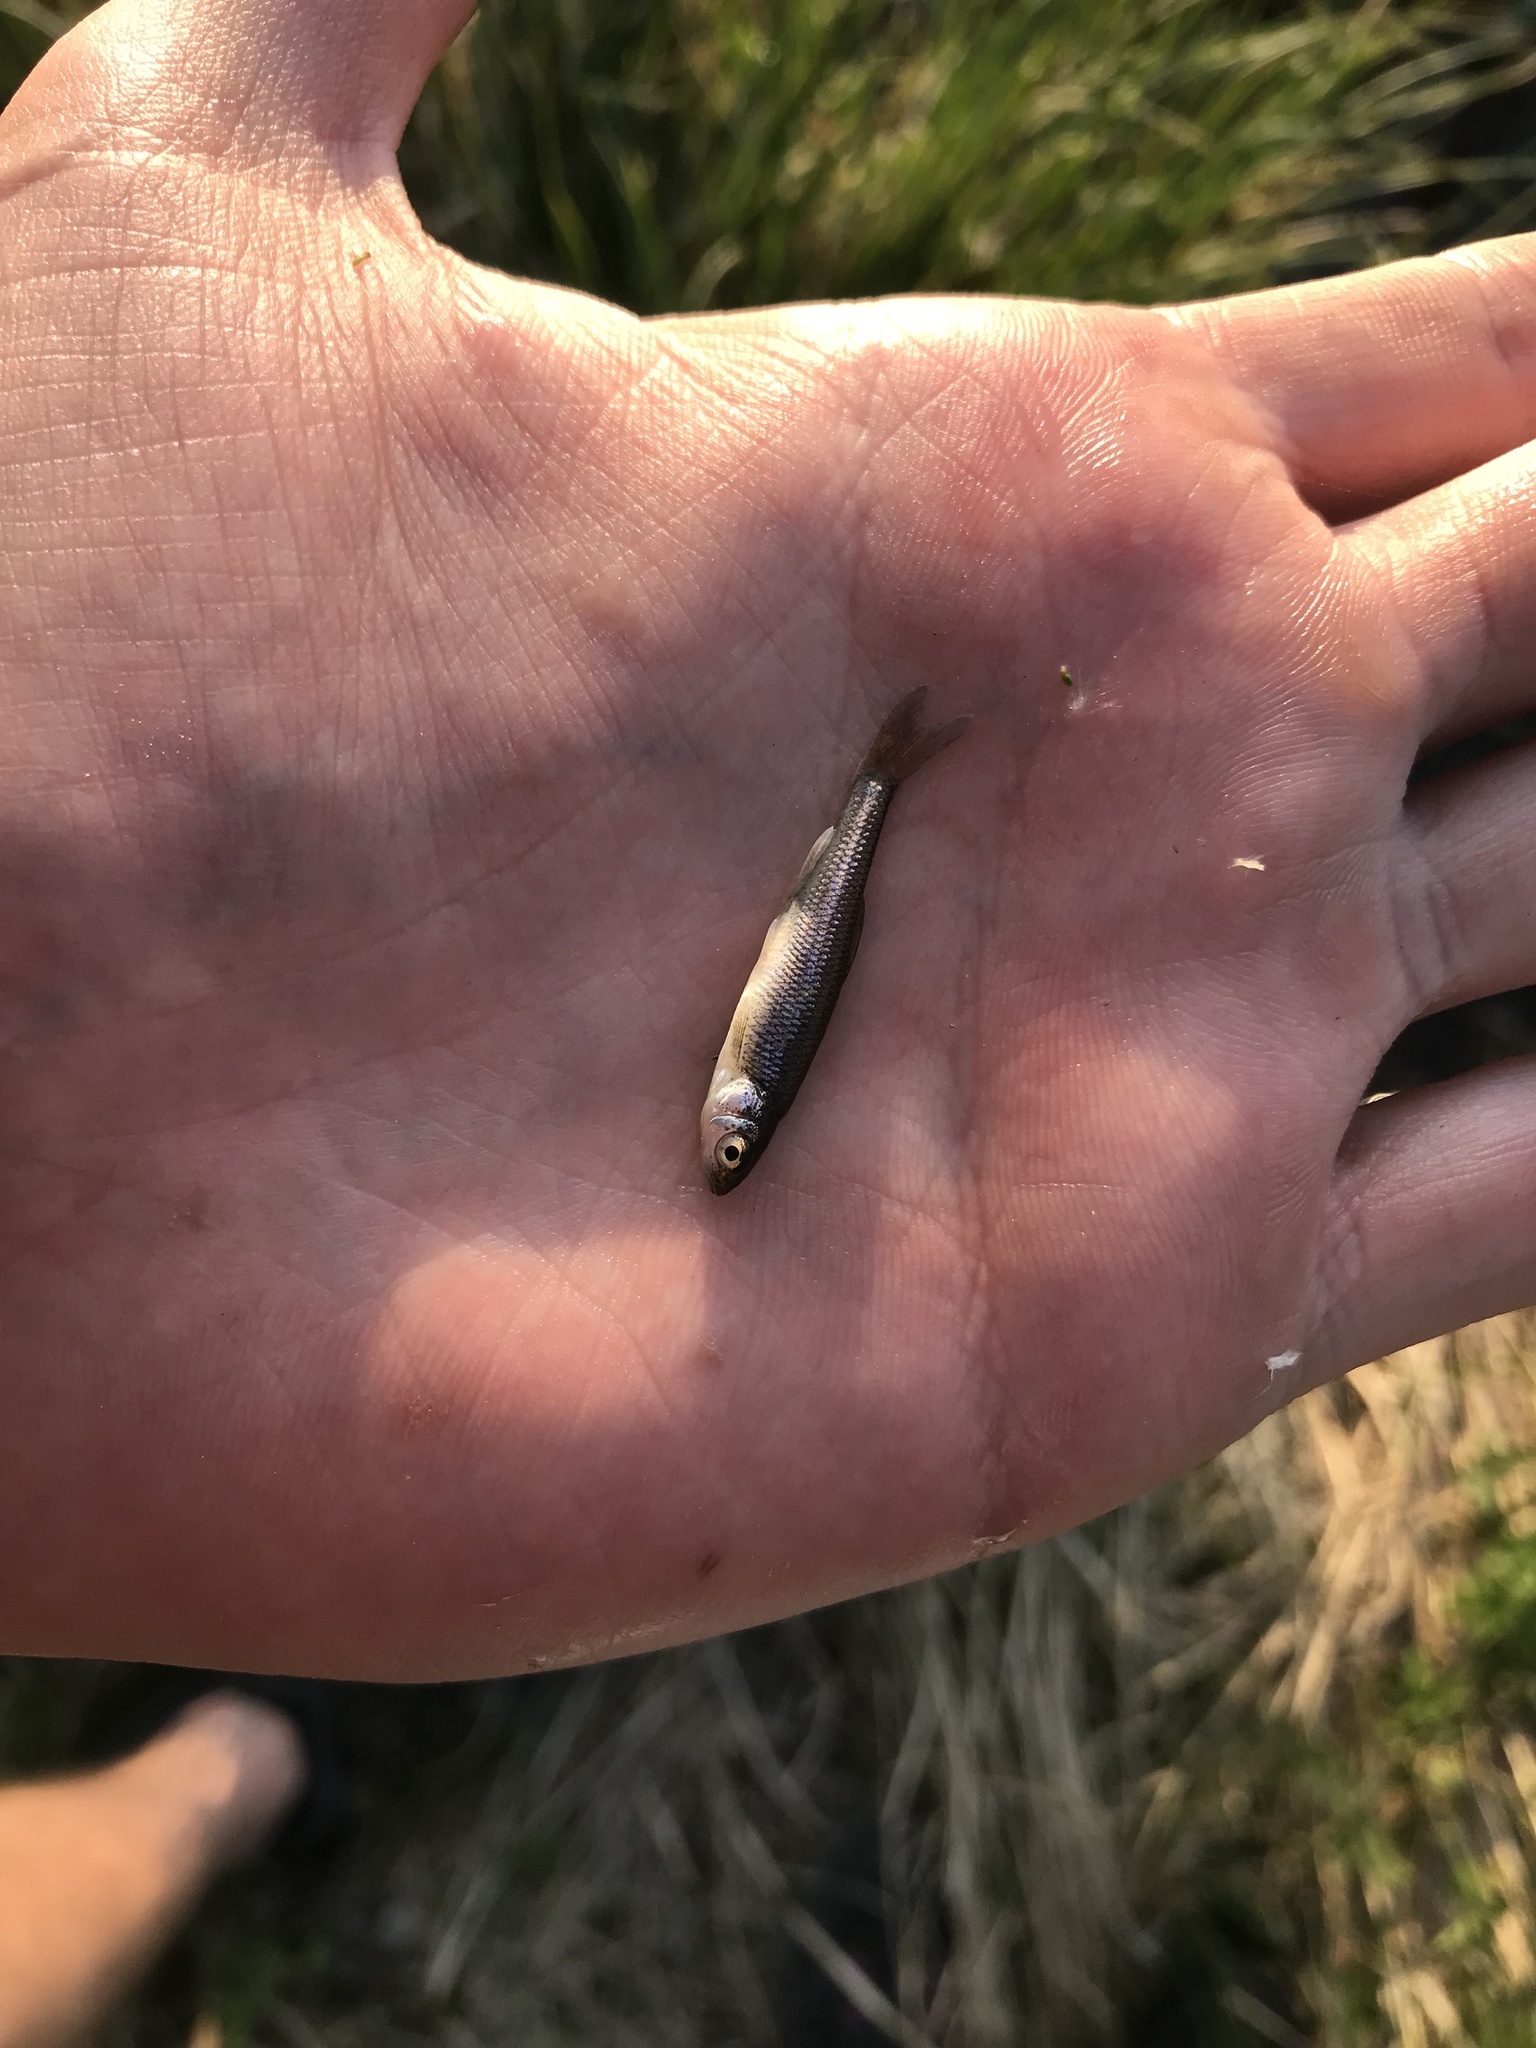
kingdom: Animalia
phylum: Chordata
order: Cypriniformes
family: Cyprinidae
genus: Squalius
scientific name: Squalius cephalus
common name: Chub
